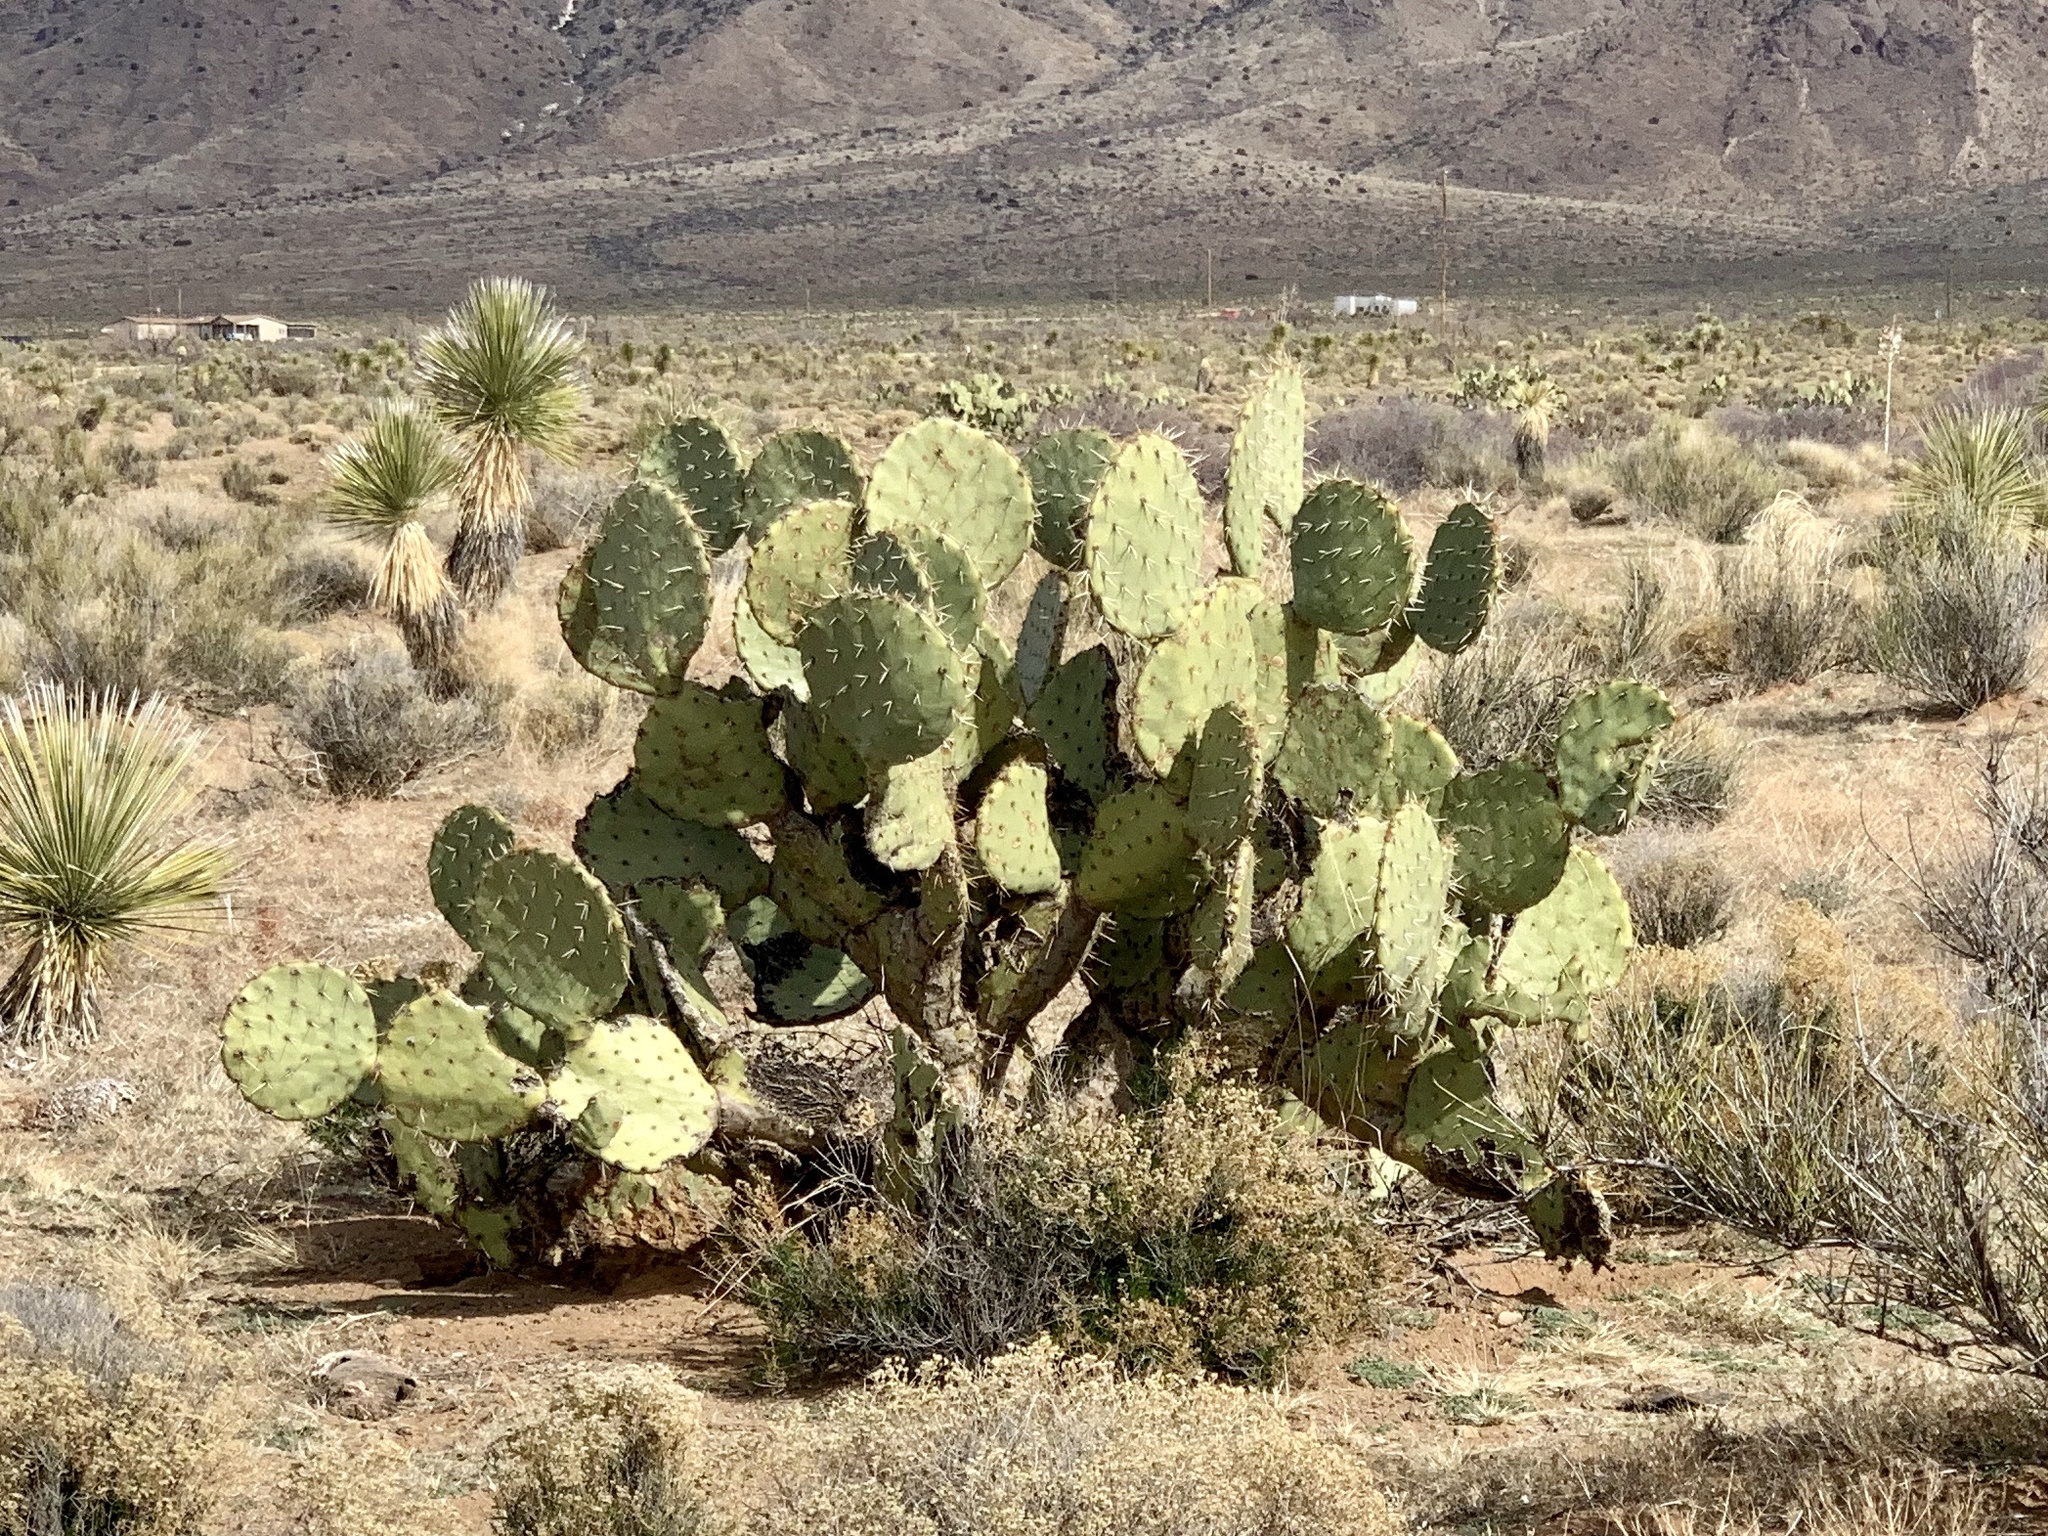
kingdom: Plantae
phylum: Tracheophyta
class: Magnoliopsida
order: Caryophyllales
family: Cactaceae
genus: Opuntia
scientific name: Opuntia engelmannii
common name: Cactus-apple
